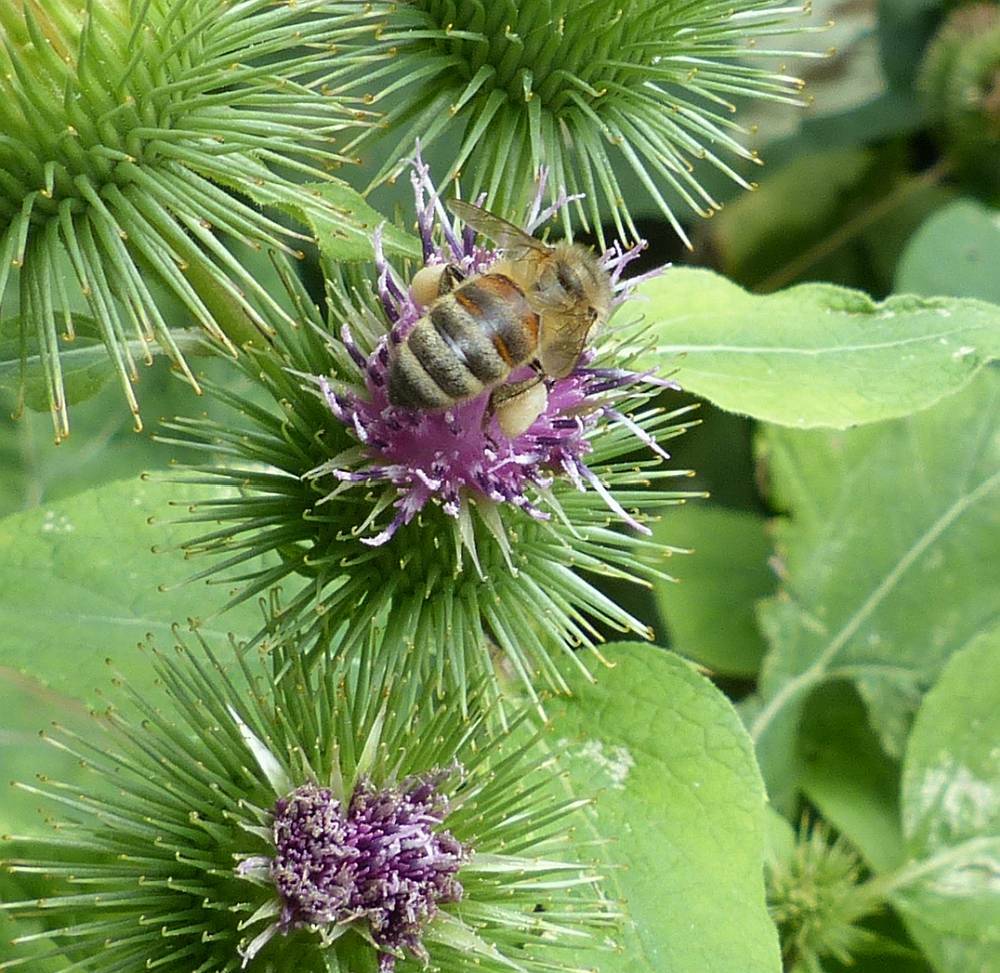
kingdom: Animalia
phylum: Arthropoda
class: Insecta
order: Hymenoptera
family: Apidae
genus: Apis
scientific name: Apis mellifera
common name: Honey bee
